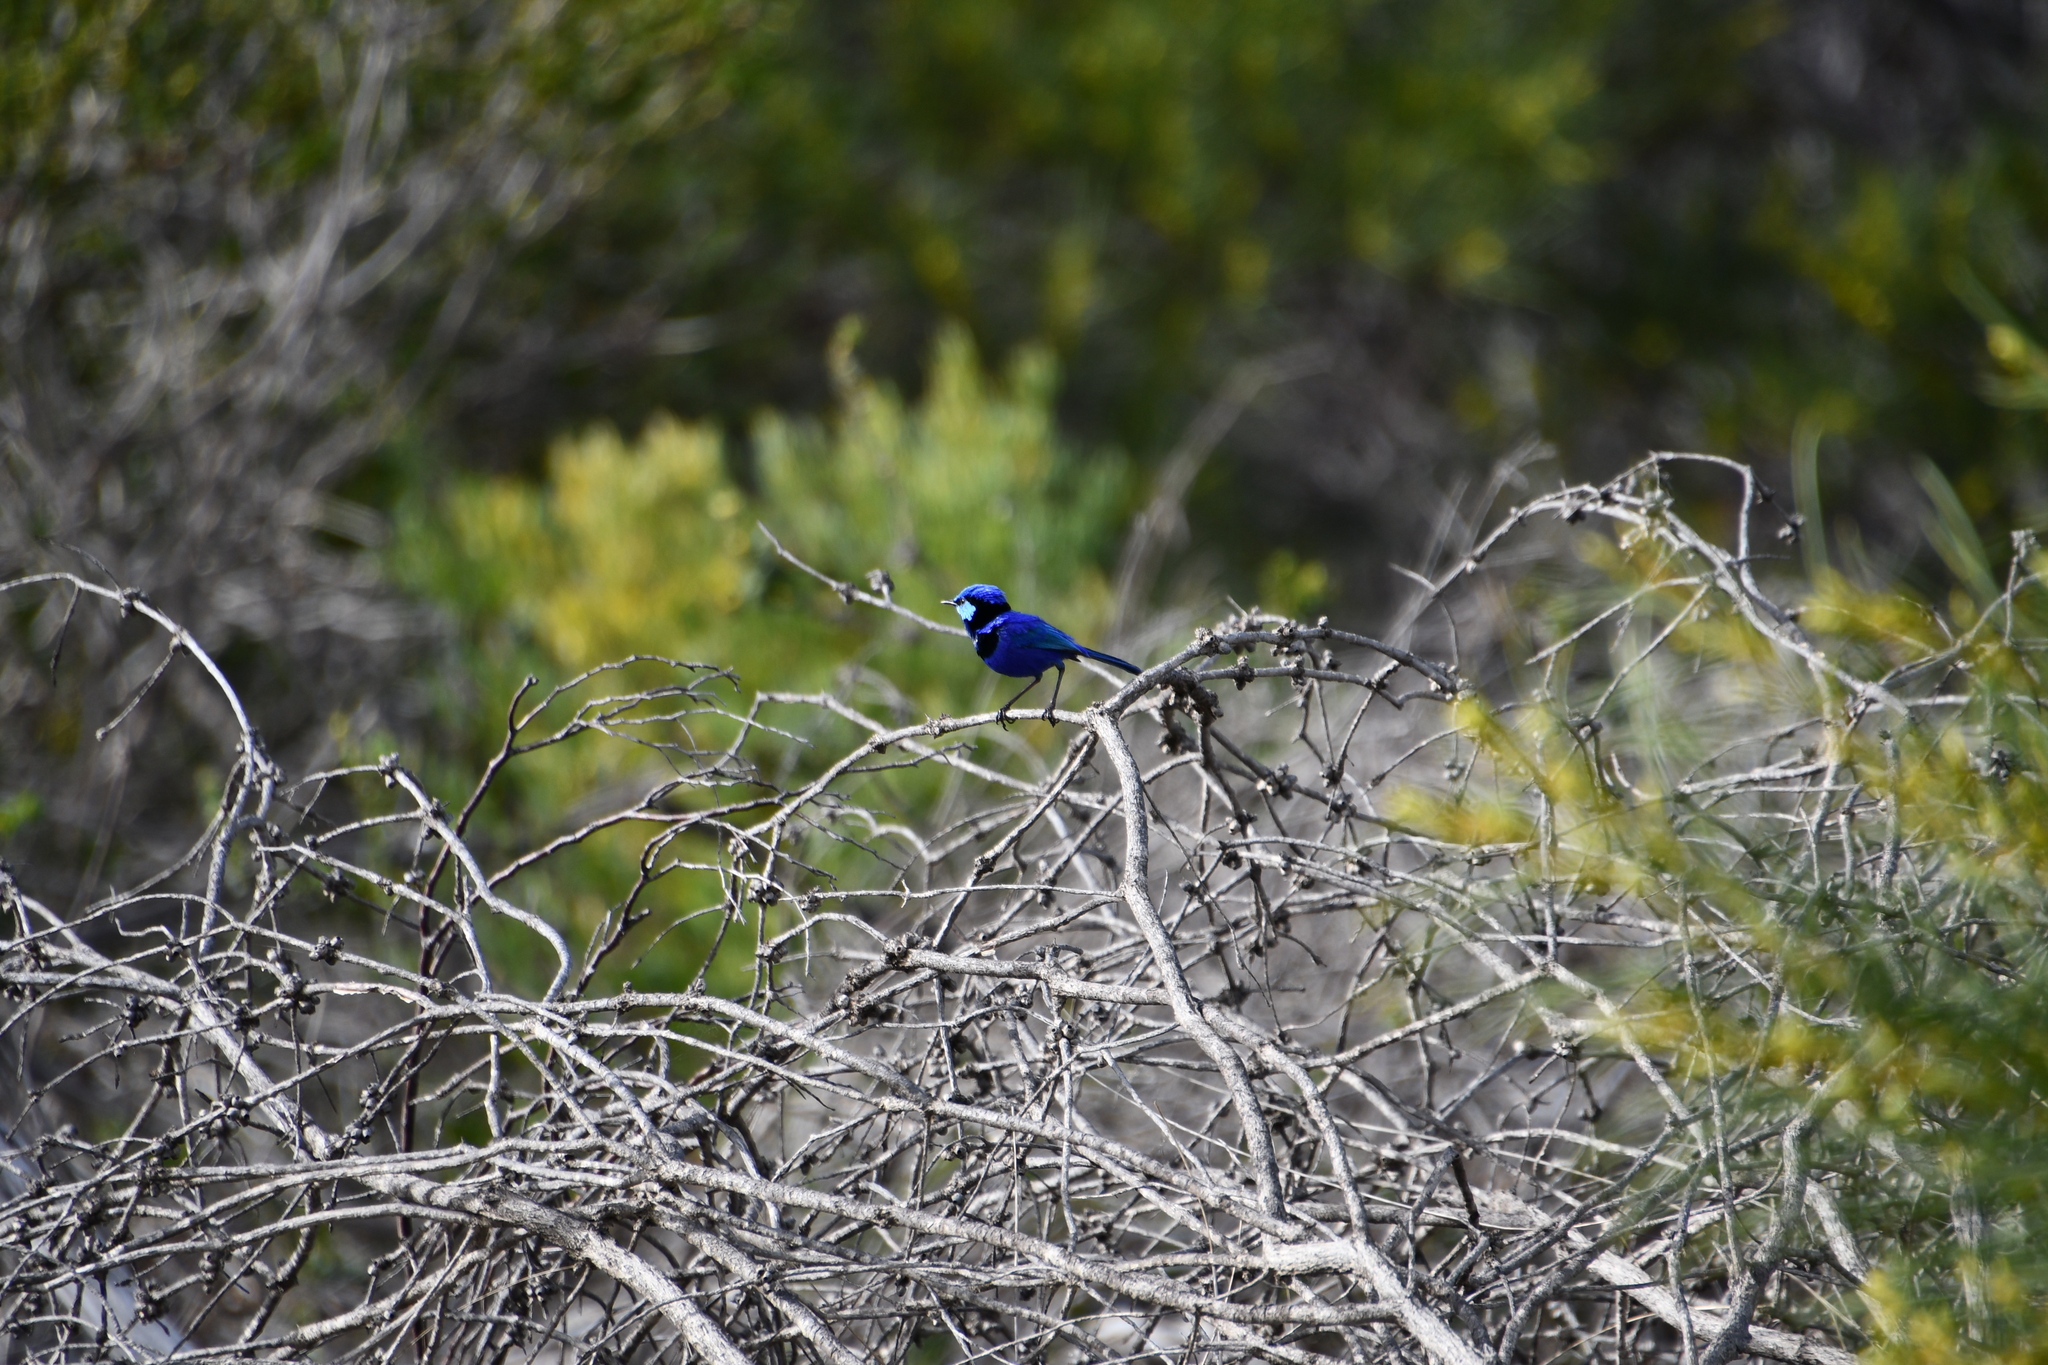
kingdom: Animalia
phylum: Chordata
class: Aves
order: Passeriformes
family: Maluridae
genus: Malurus
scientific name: Malurus splendens
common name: Splendid fairywren
